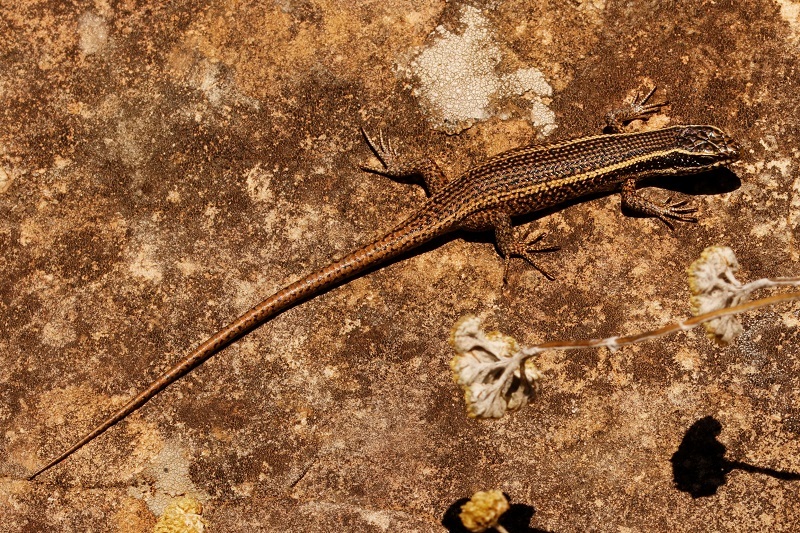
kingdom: Animalia
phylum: Chordata
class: Squamata
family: Scincidae
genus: Trachylepis
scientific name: Trachylepis punctatissima
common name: Montane speckled skink
